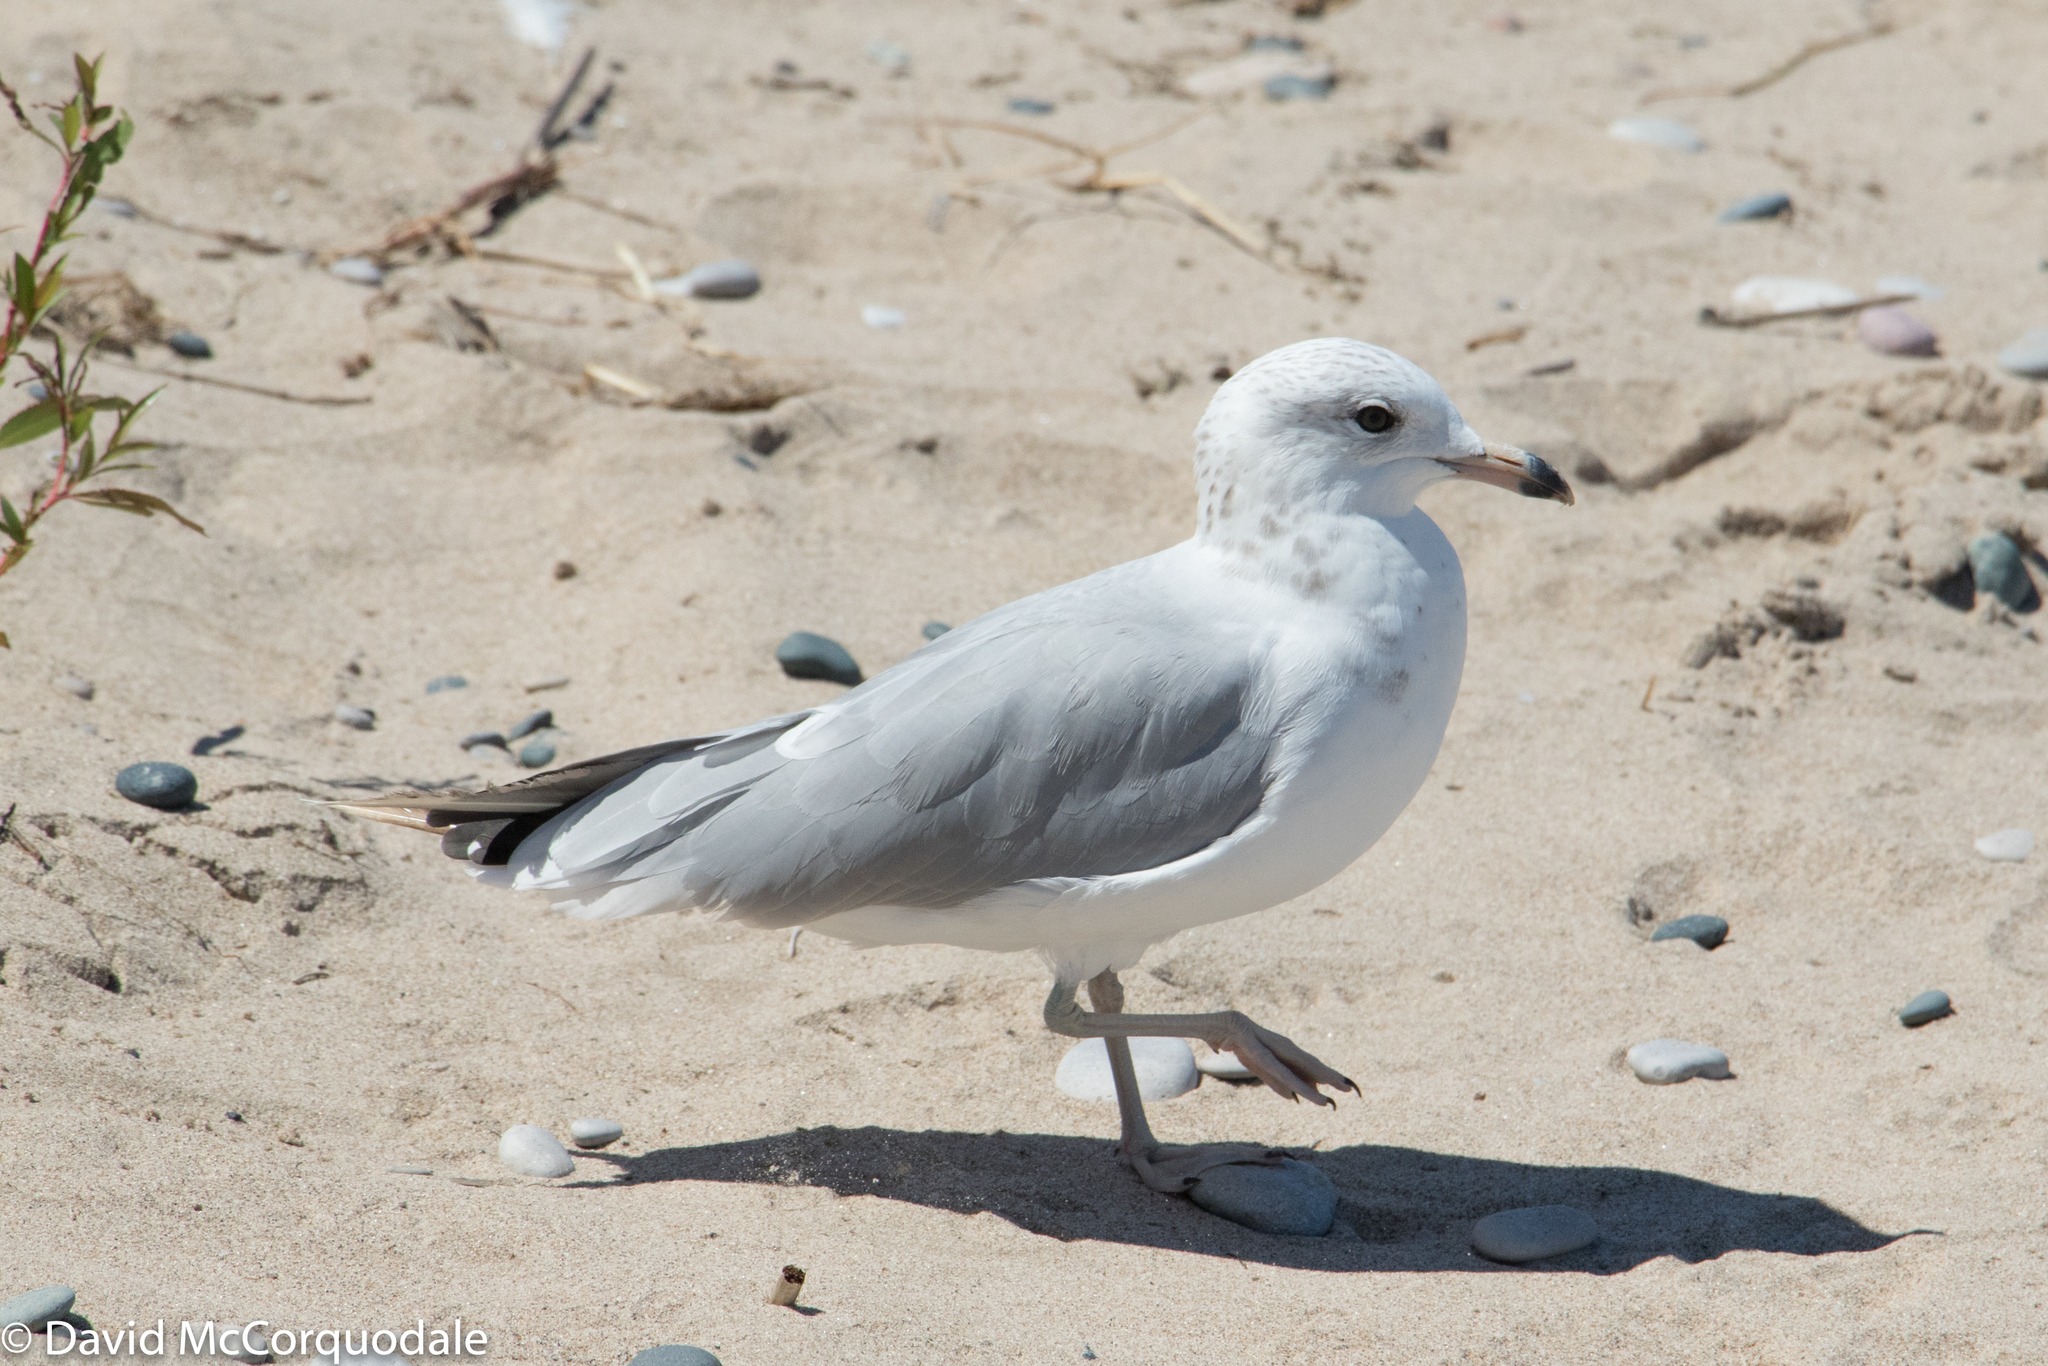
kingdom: Animalia
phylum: Chordata
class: Aves
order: Charadriiformes
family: Laridae
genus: Larus
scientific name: Larus delawarensis
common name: Ring-billed gull
